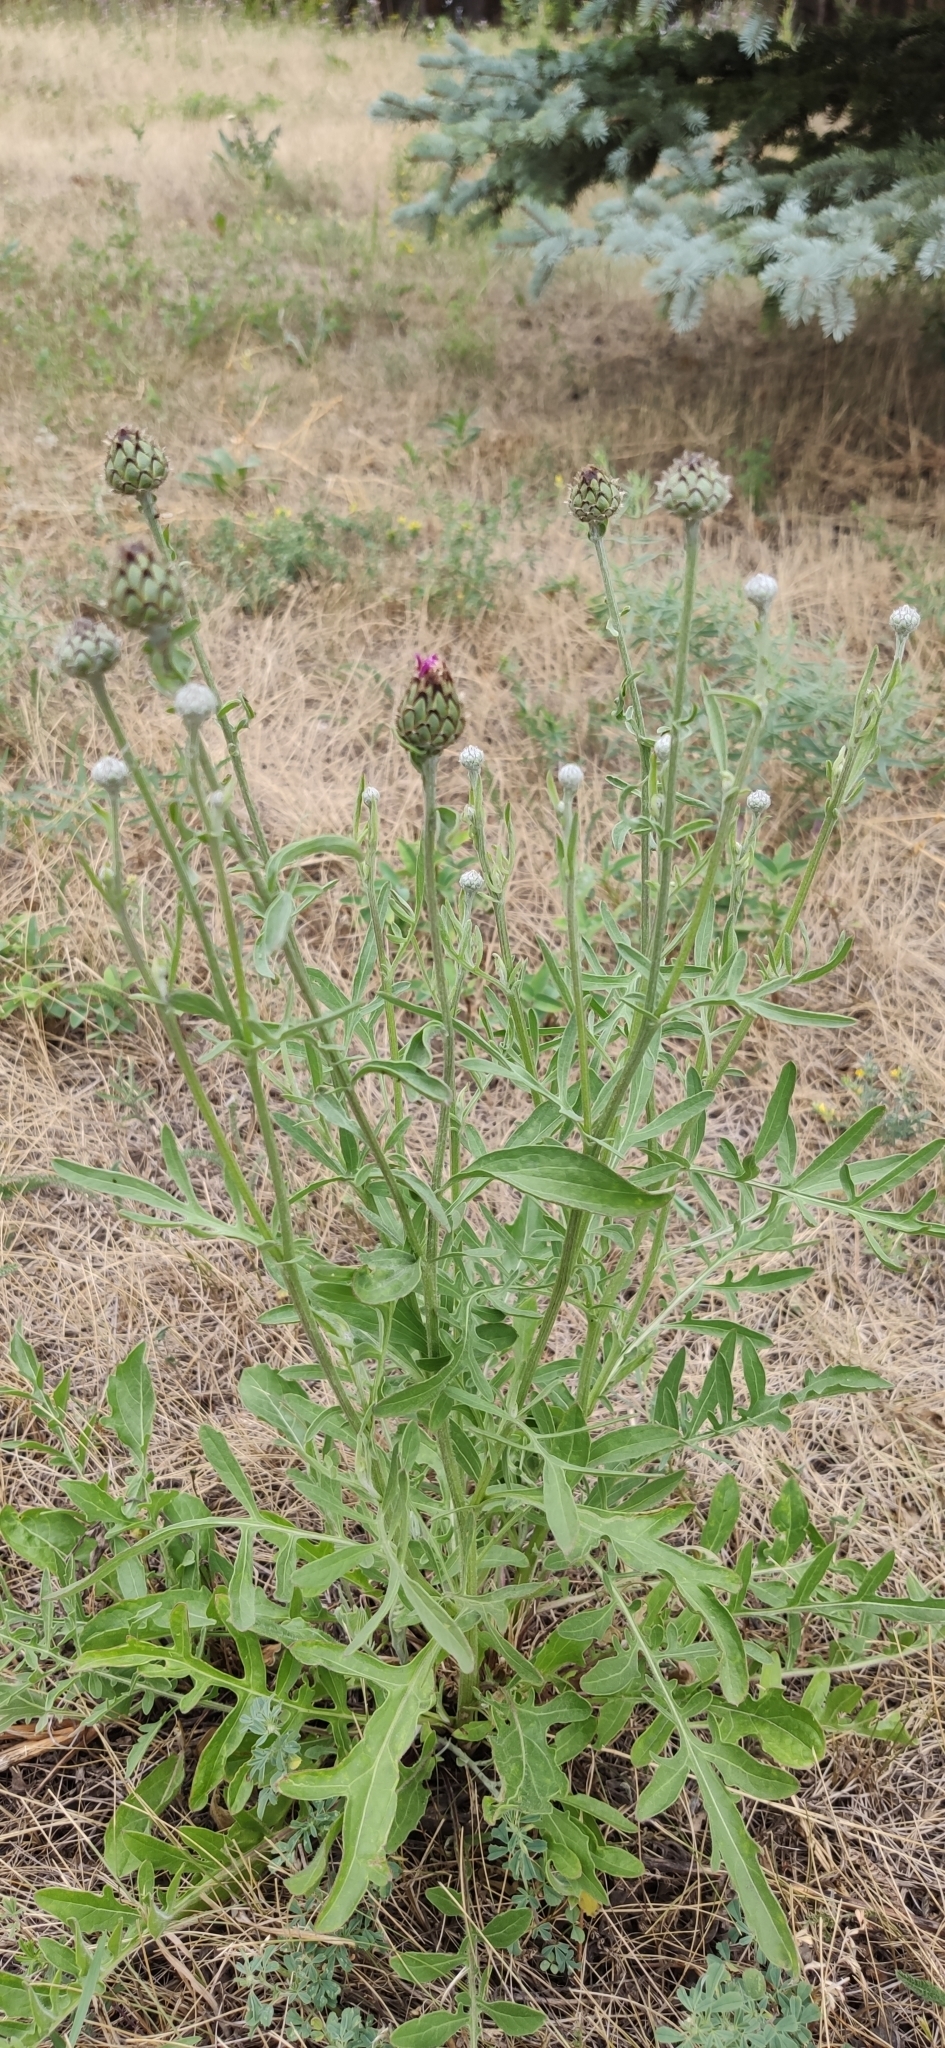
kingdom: Plantae
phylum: Tracheophyta
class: Magnoliopsida
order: Asterales
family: Asteraceae
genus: Centaurea
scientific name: Centaurea scabiosa
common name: Greater knapweed
